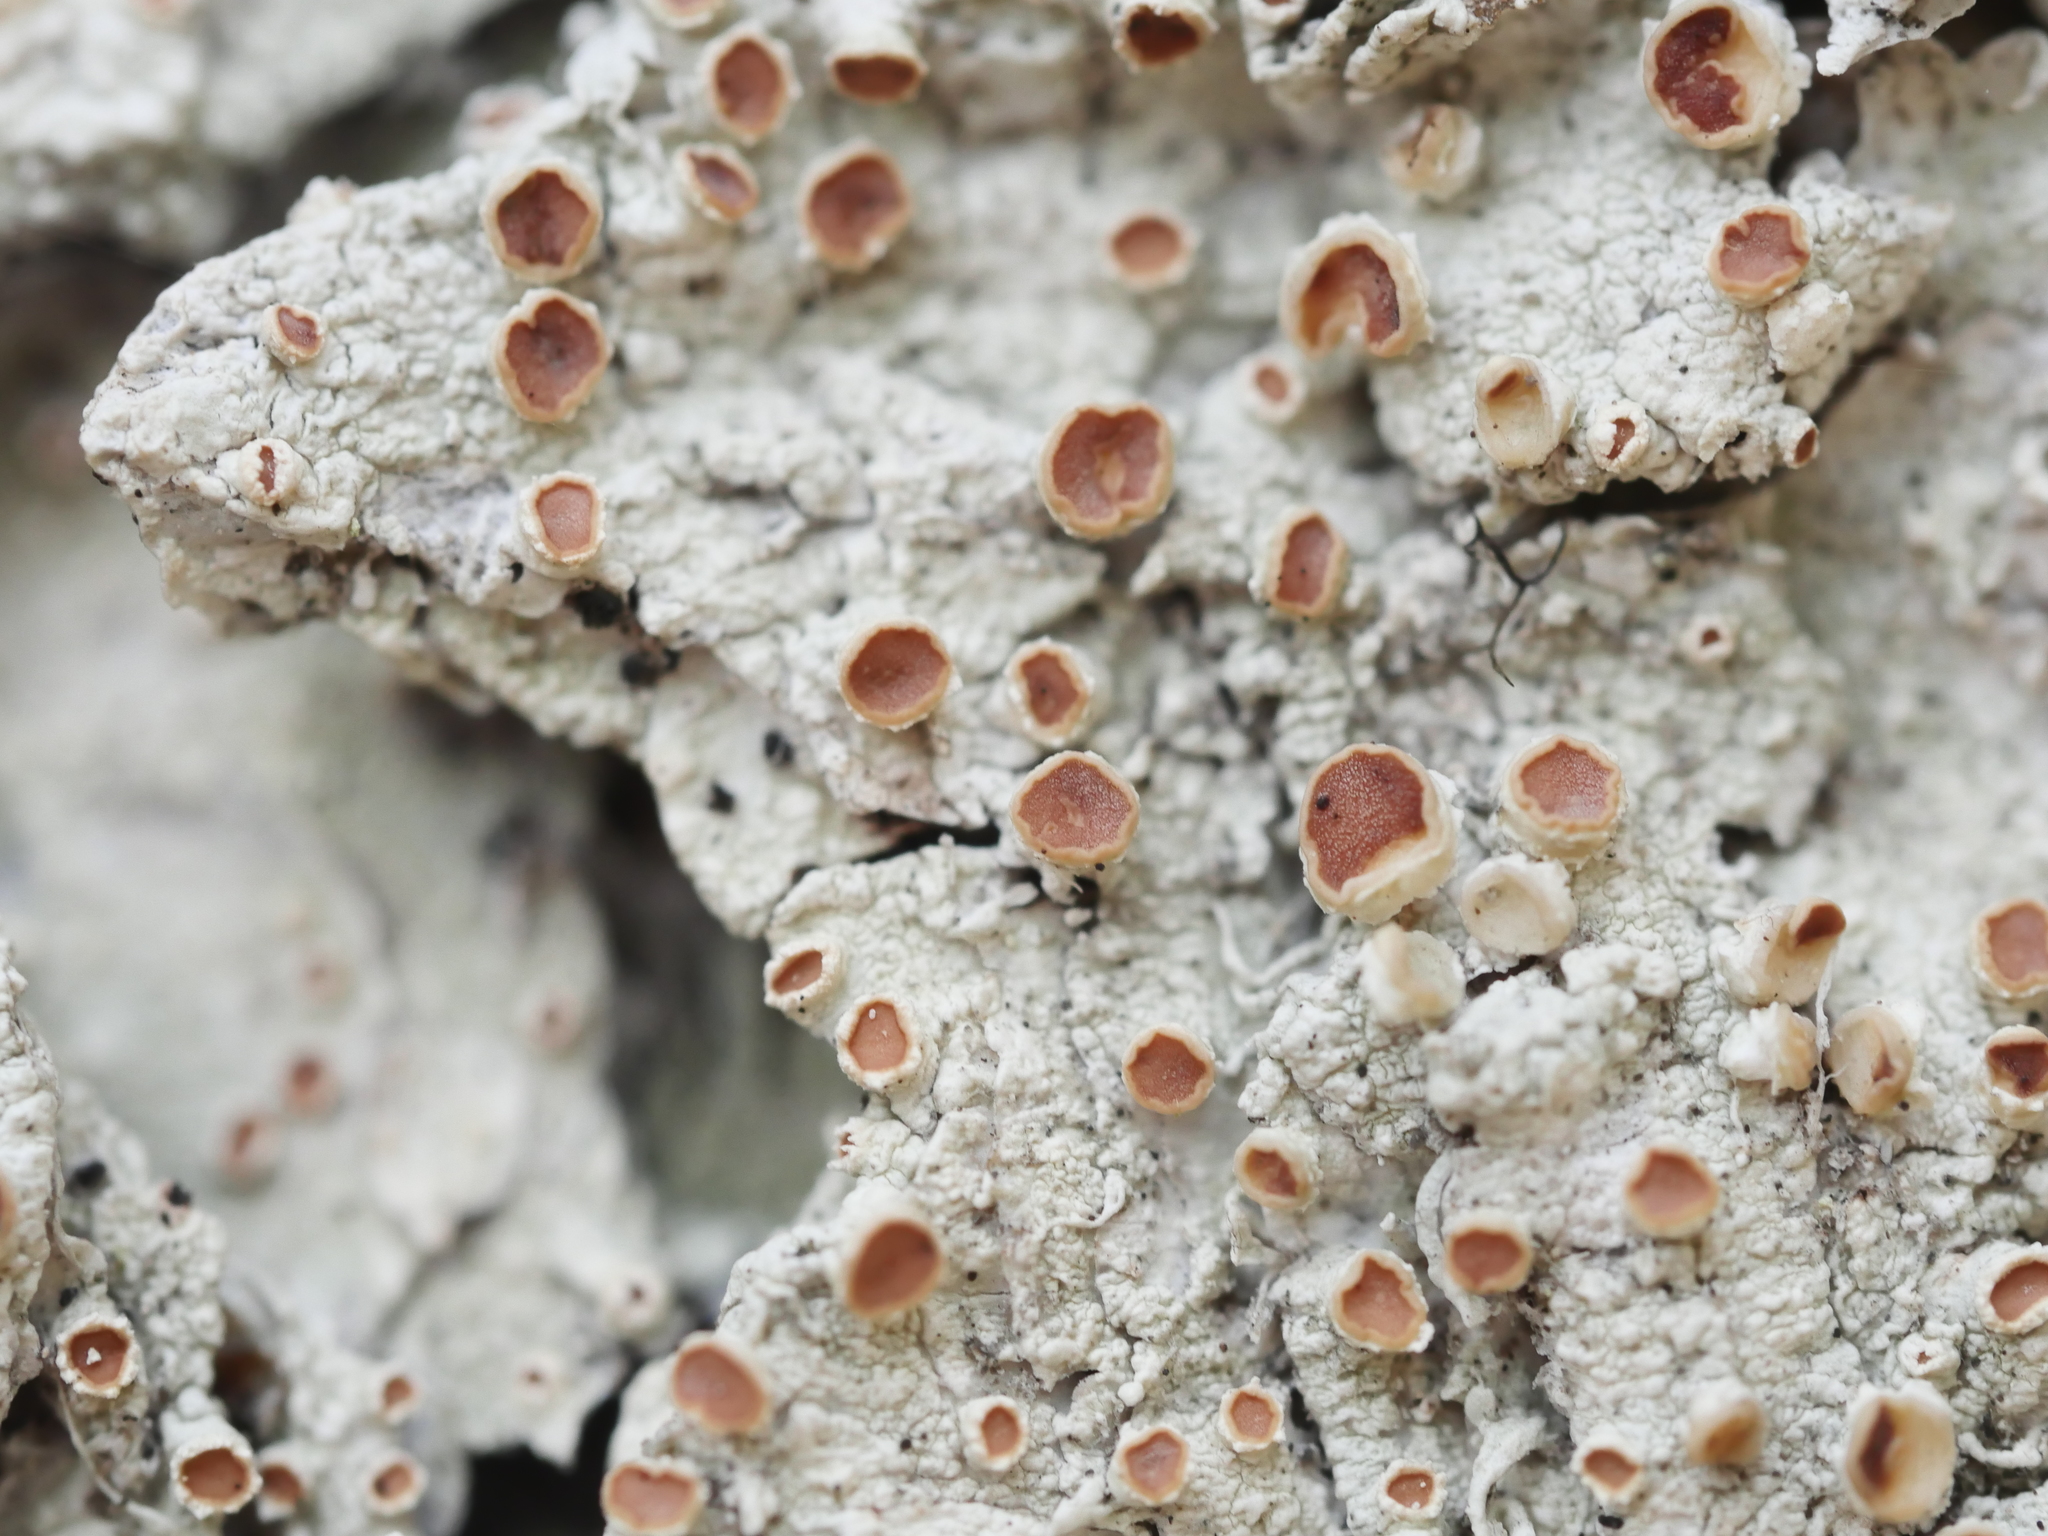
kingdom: Fungi
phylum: Ascomycota
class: Lecanoromycetes
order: Lecanorales
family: Sarrameanaceae
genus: Loxospora
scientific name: Loxospora ochrophaea
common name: Eastern ragged-rim lichen
